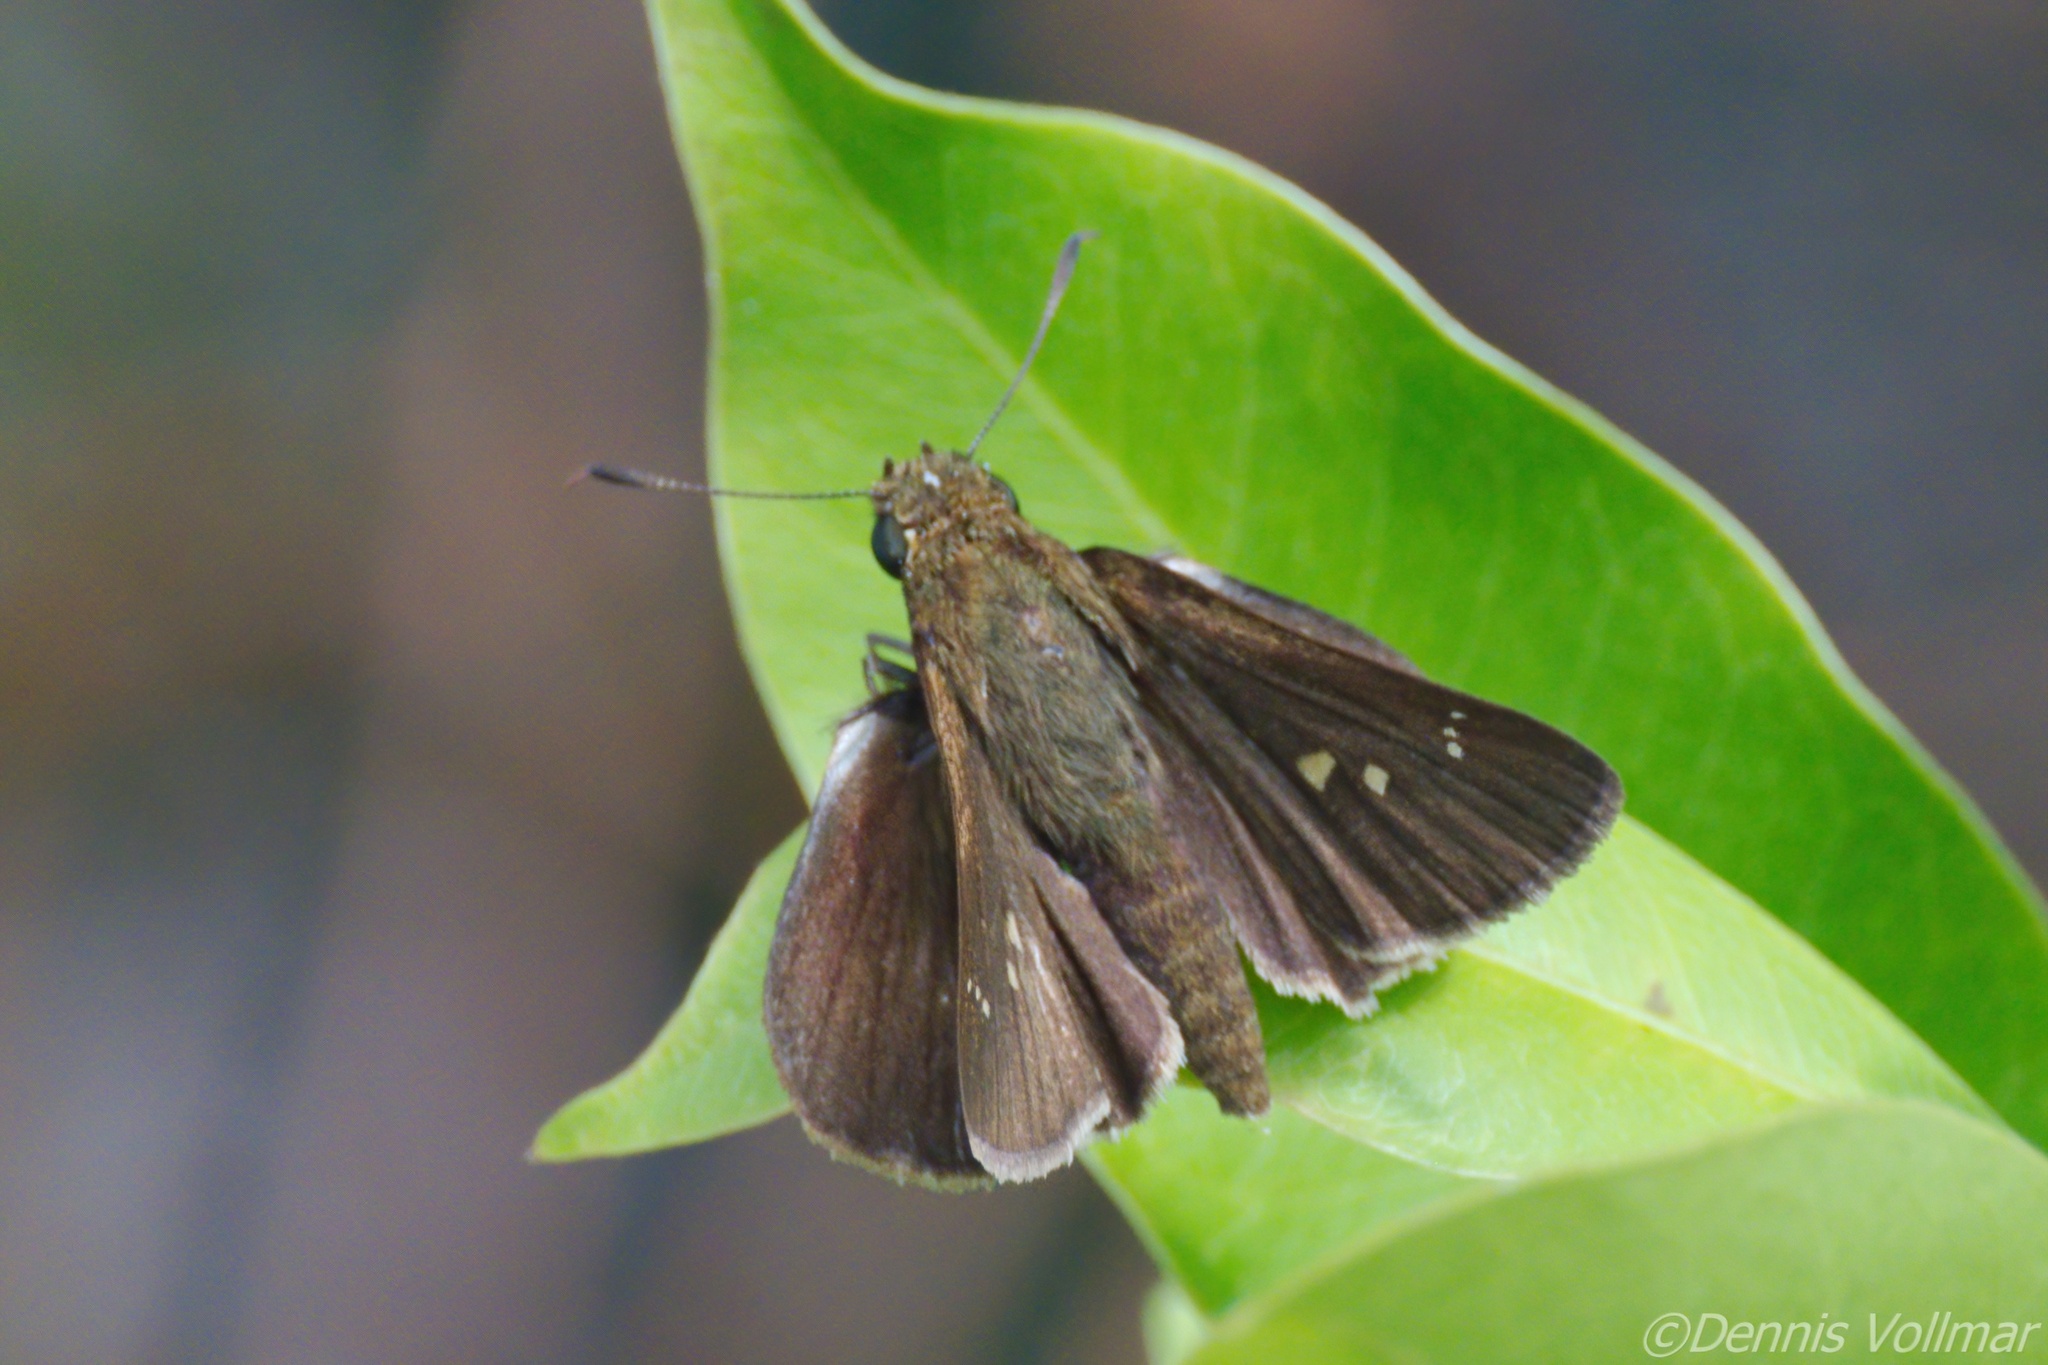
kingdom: Animalia
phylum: Arthropoda
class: Insecta
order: Lepidoptera
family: Hesperiidae
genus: Oligoria
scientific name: Oligoria maculata
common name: Twin-spot skipper
